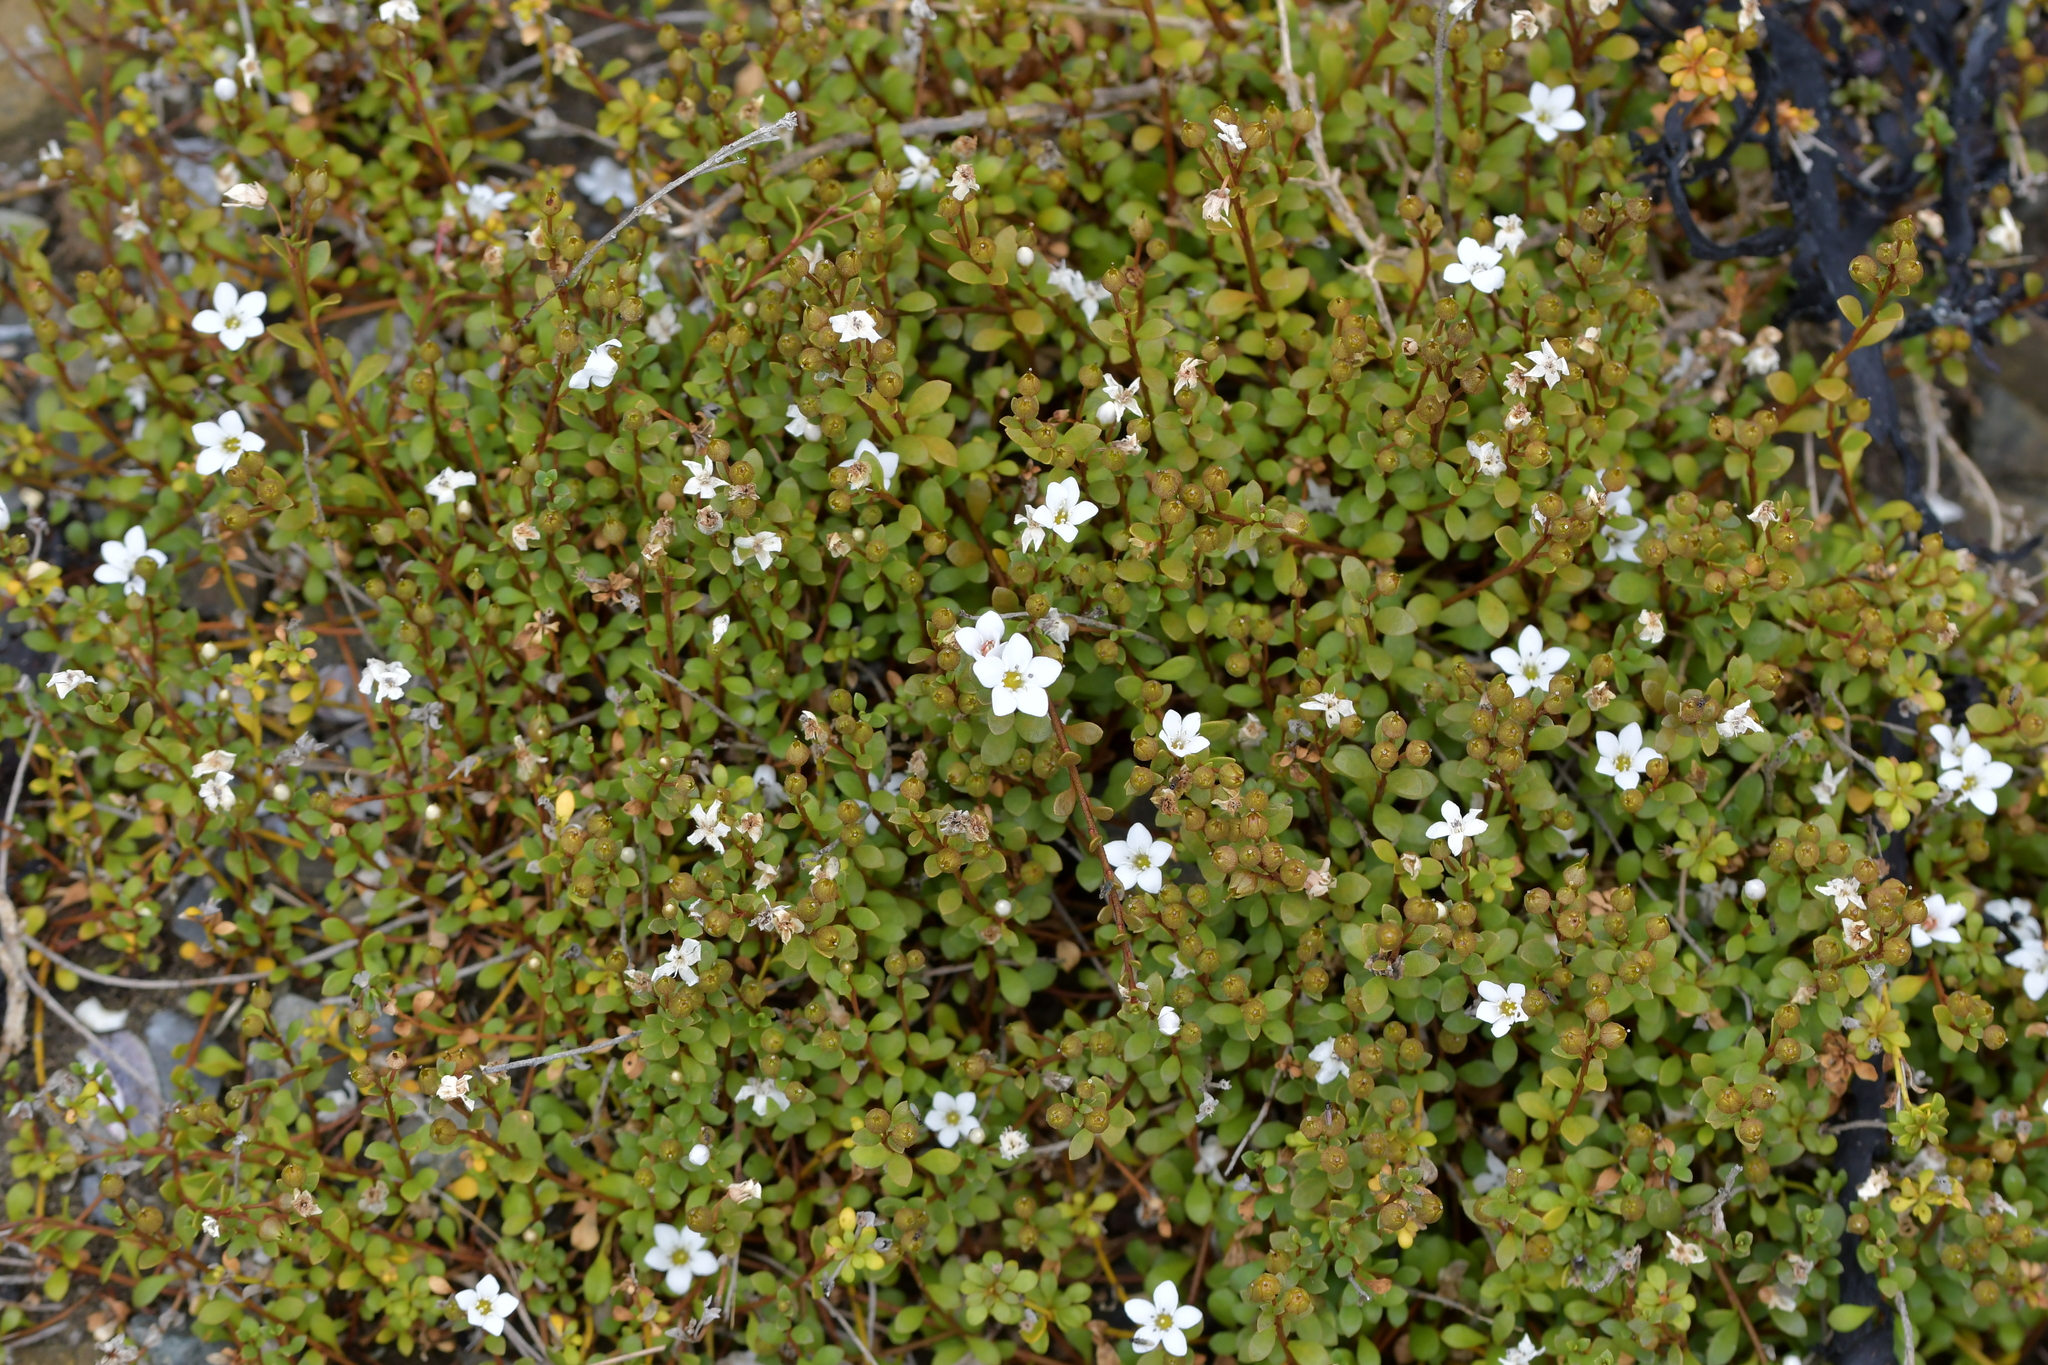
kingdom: Plantae
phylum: Tracheophyta
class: Magnoliopsida
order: Ericales
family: Primulaceae
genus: Samolus
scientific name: Samolus repens
